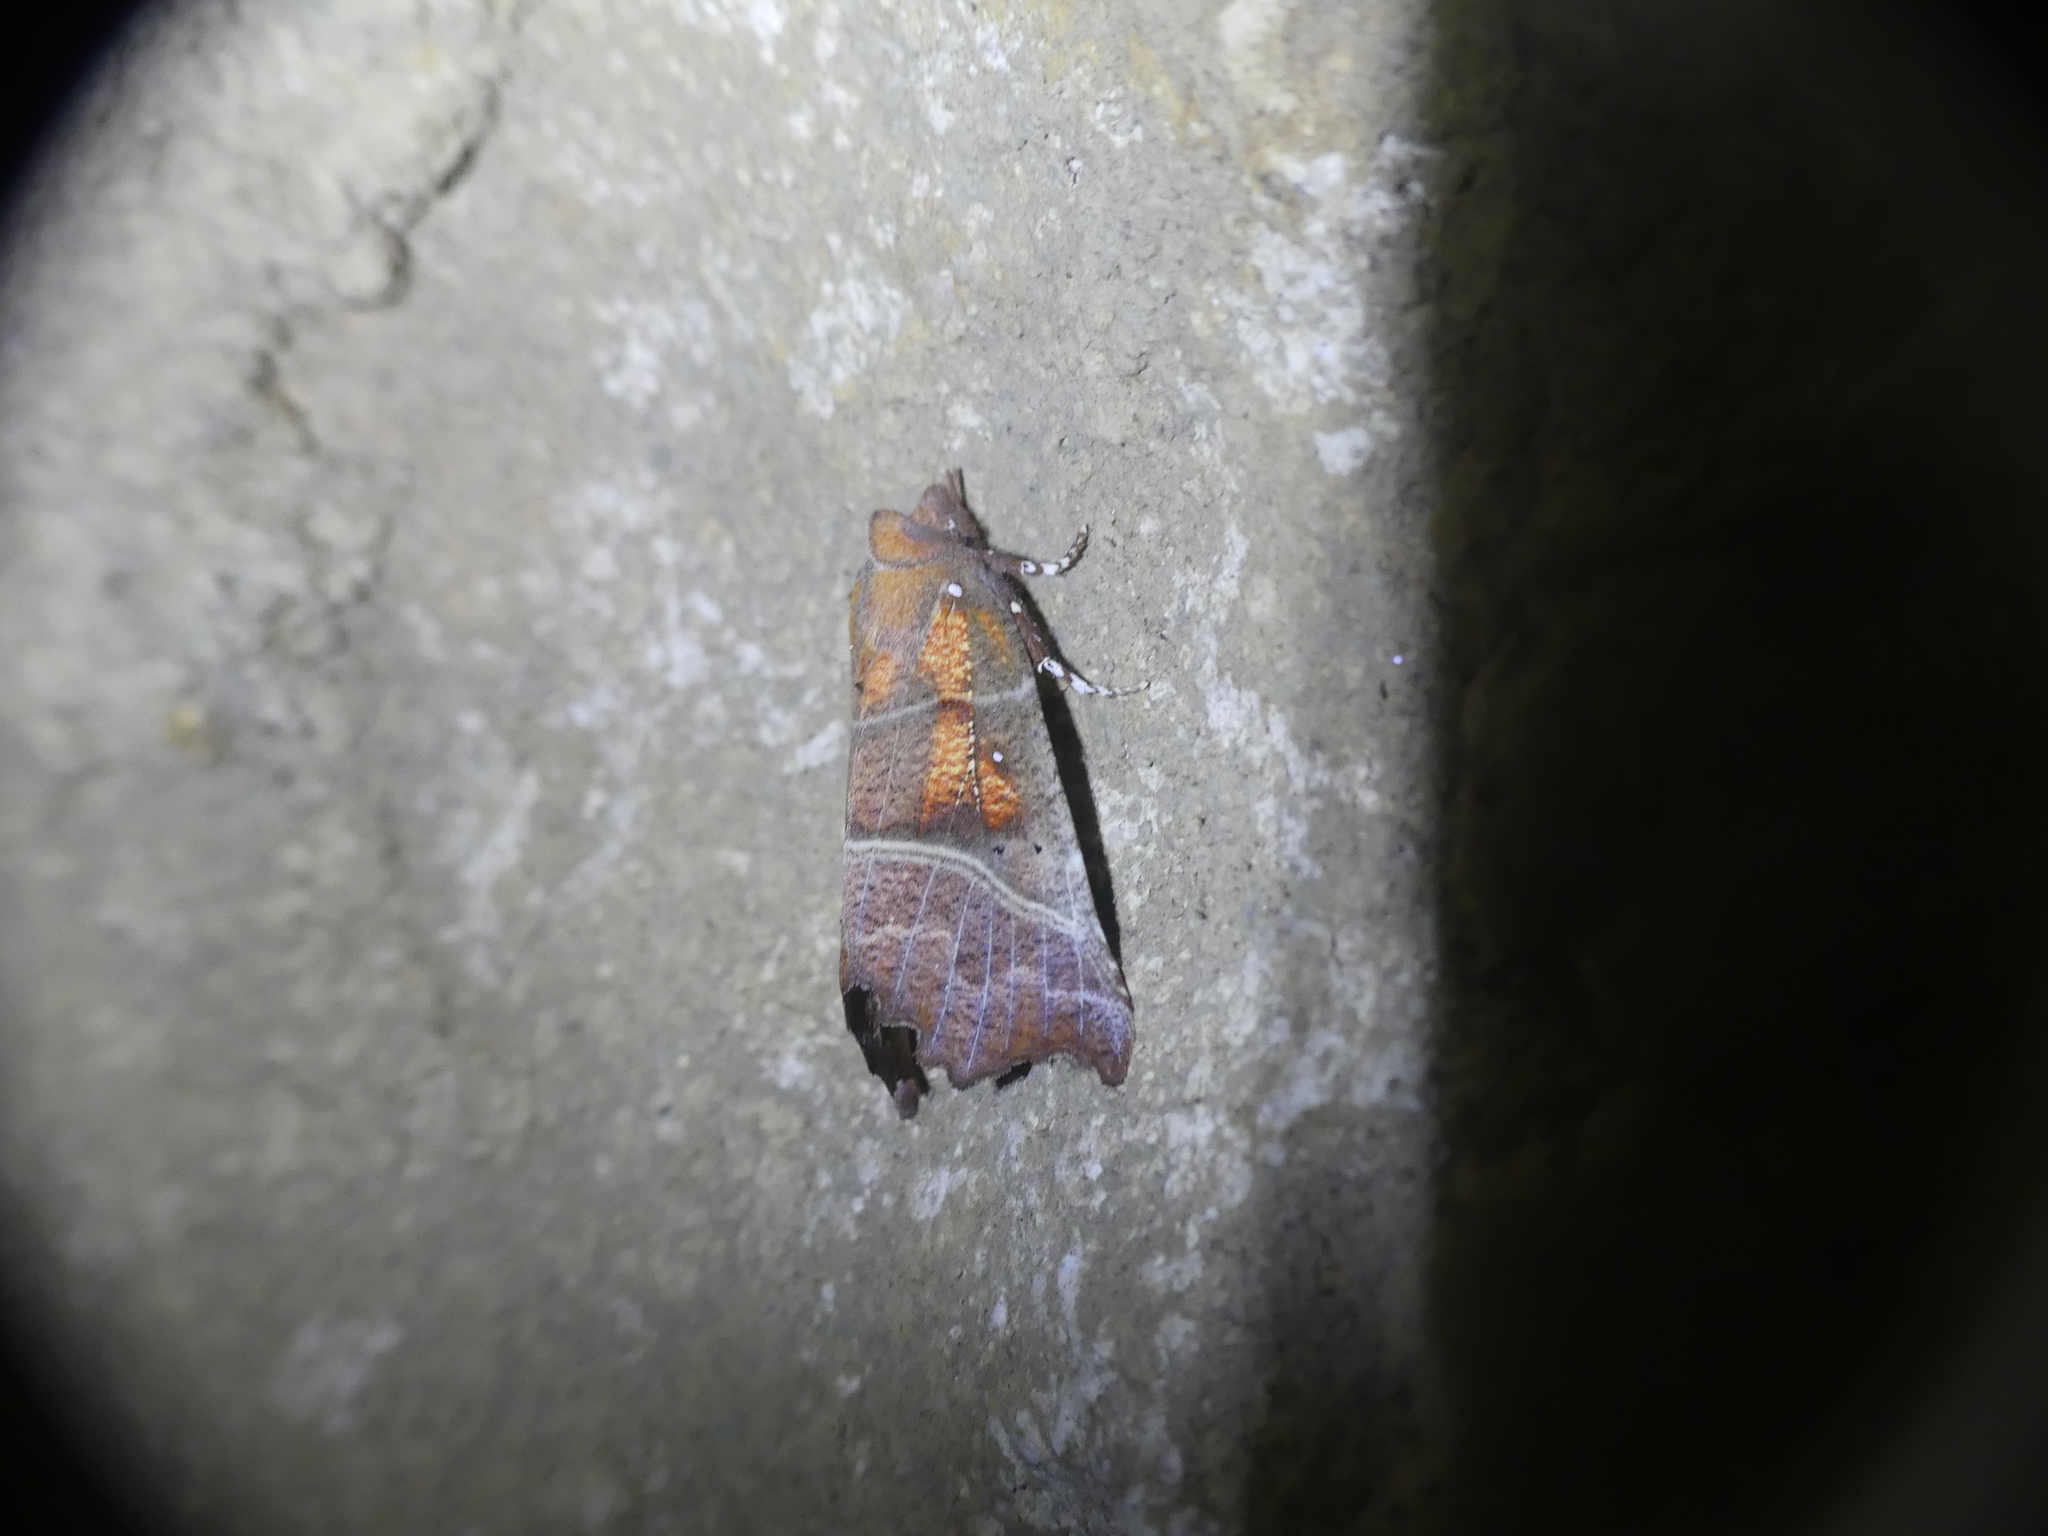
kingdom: Animalia
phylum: Arthropoda
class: Insecta
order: Lepidoptera
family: Erebidae
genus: Scoliopteryx
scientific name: Scoliopteryx libatrix
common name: Herald
